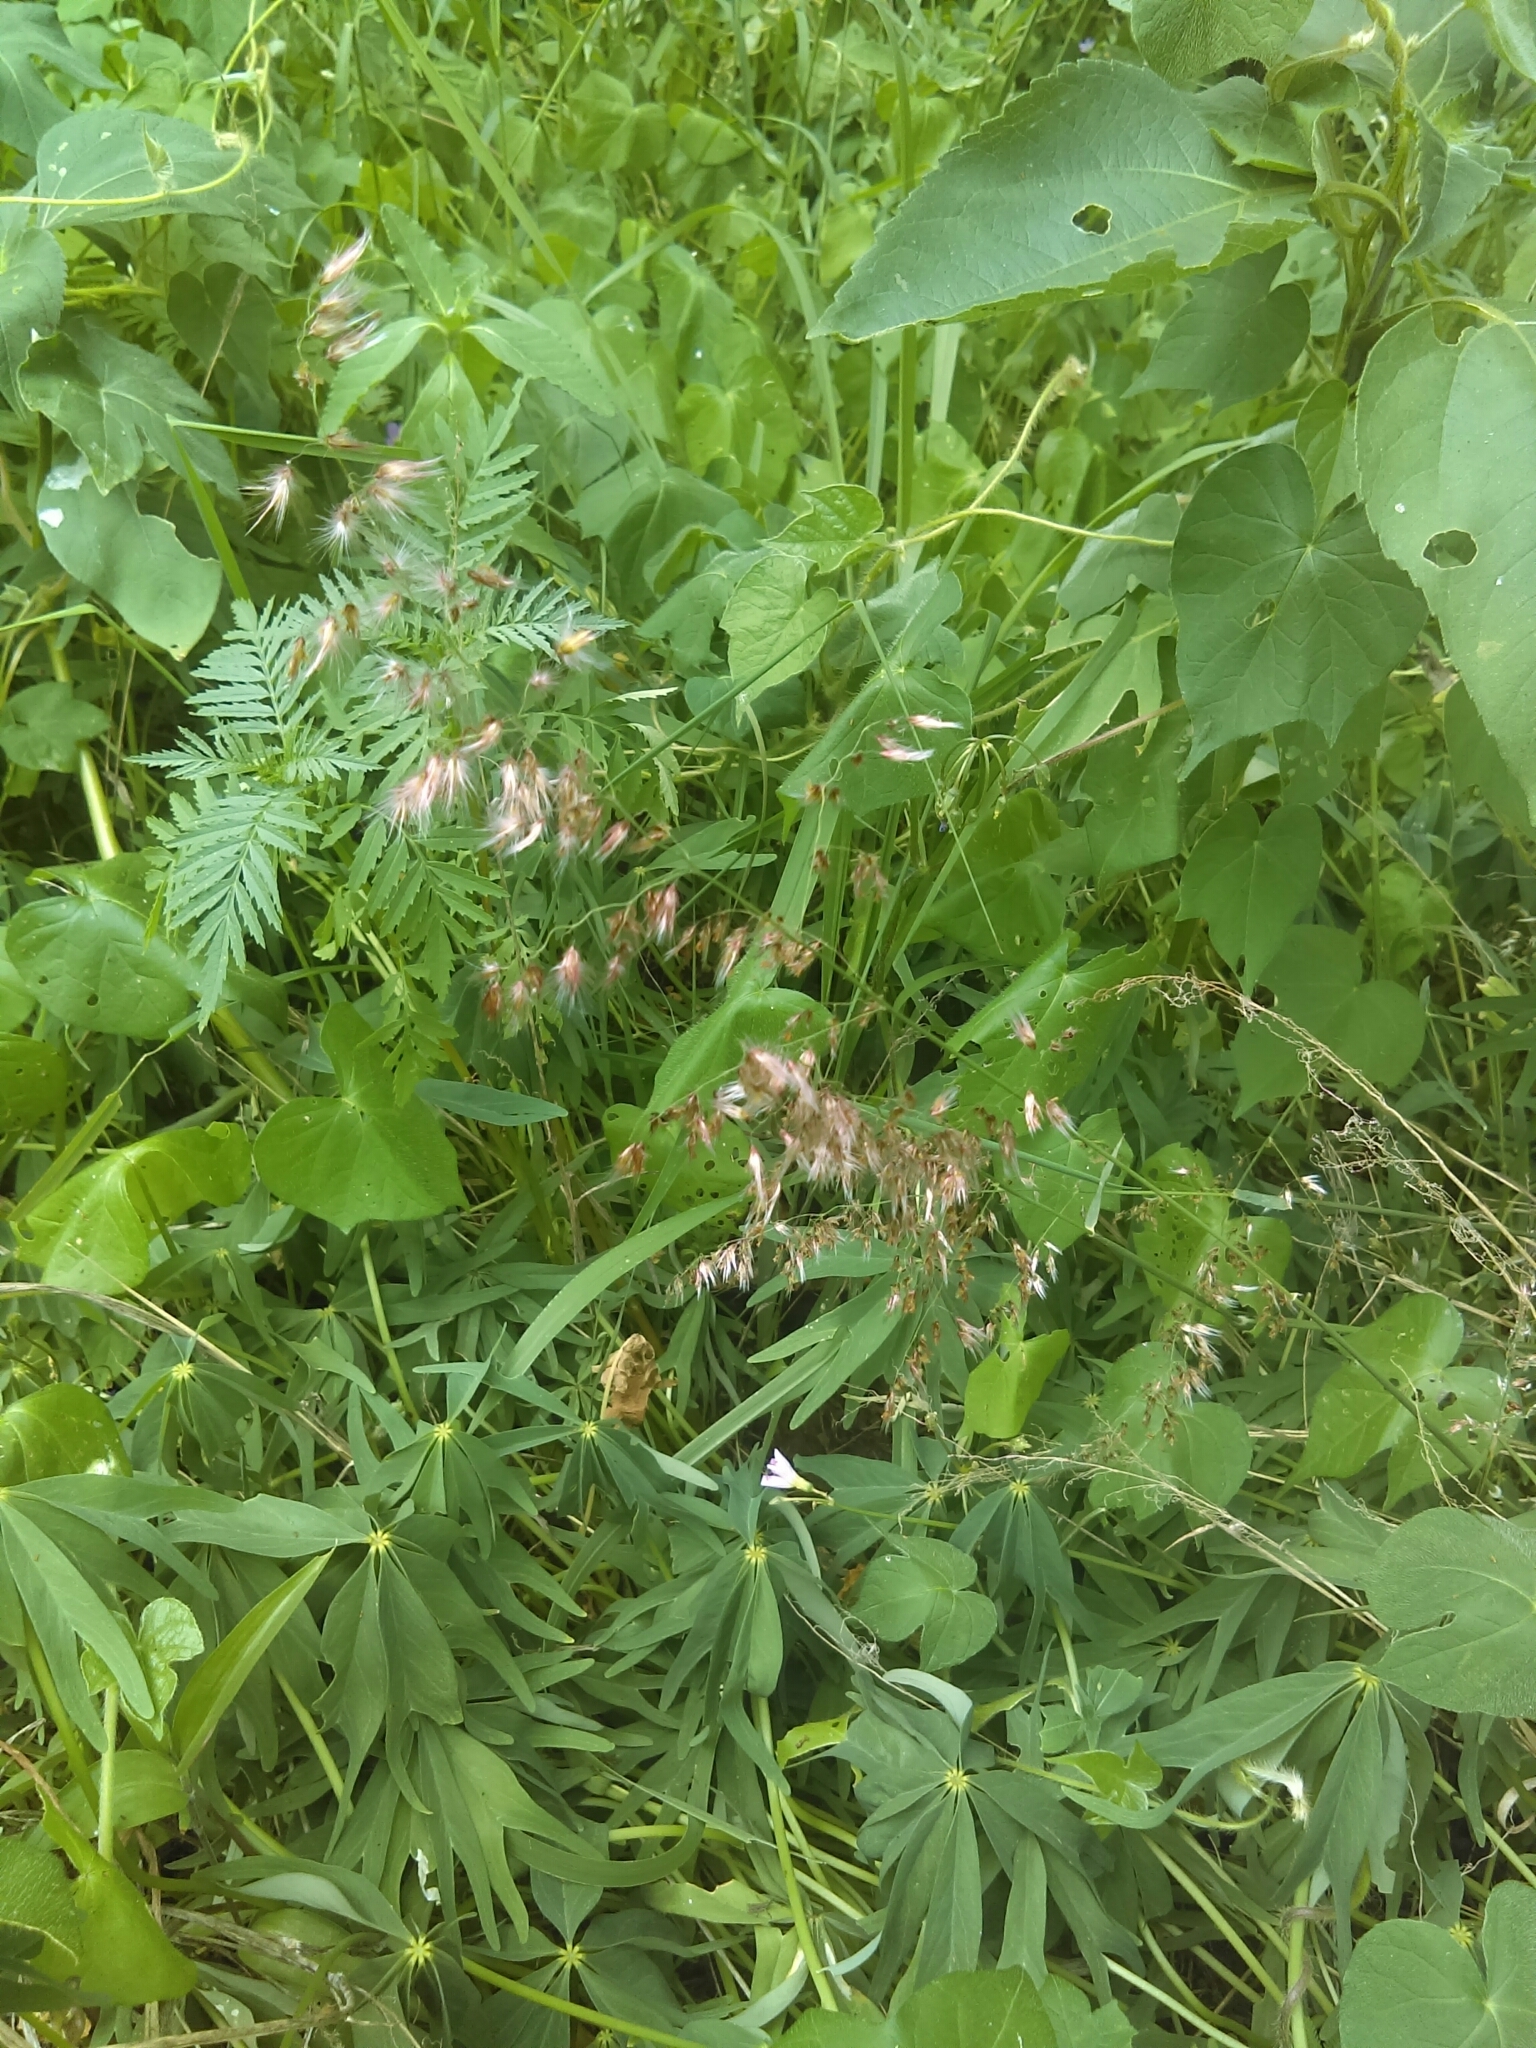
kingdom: Plantae
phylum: Tracheophyta
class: Liliopsida
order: Poales
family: Poaceae
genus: Melinis
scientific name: Melinis repens
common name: Rose natal grass
